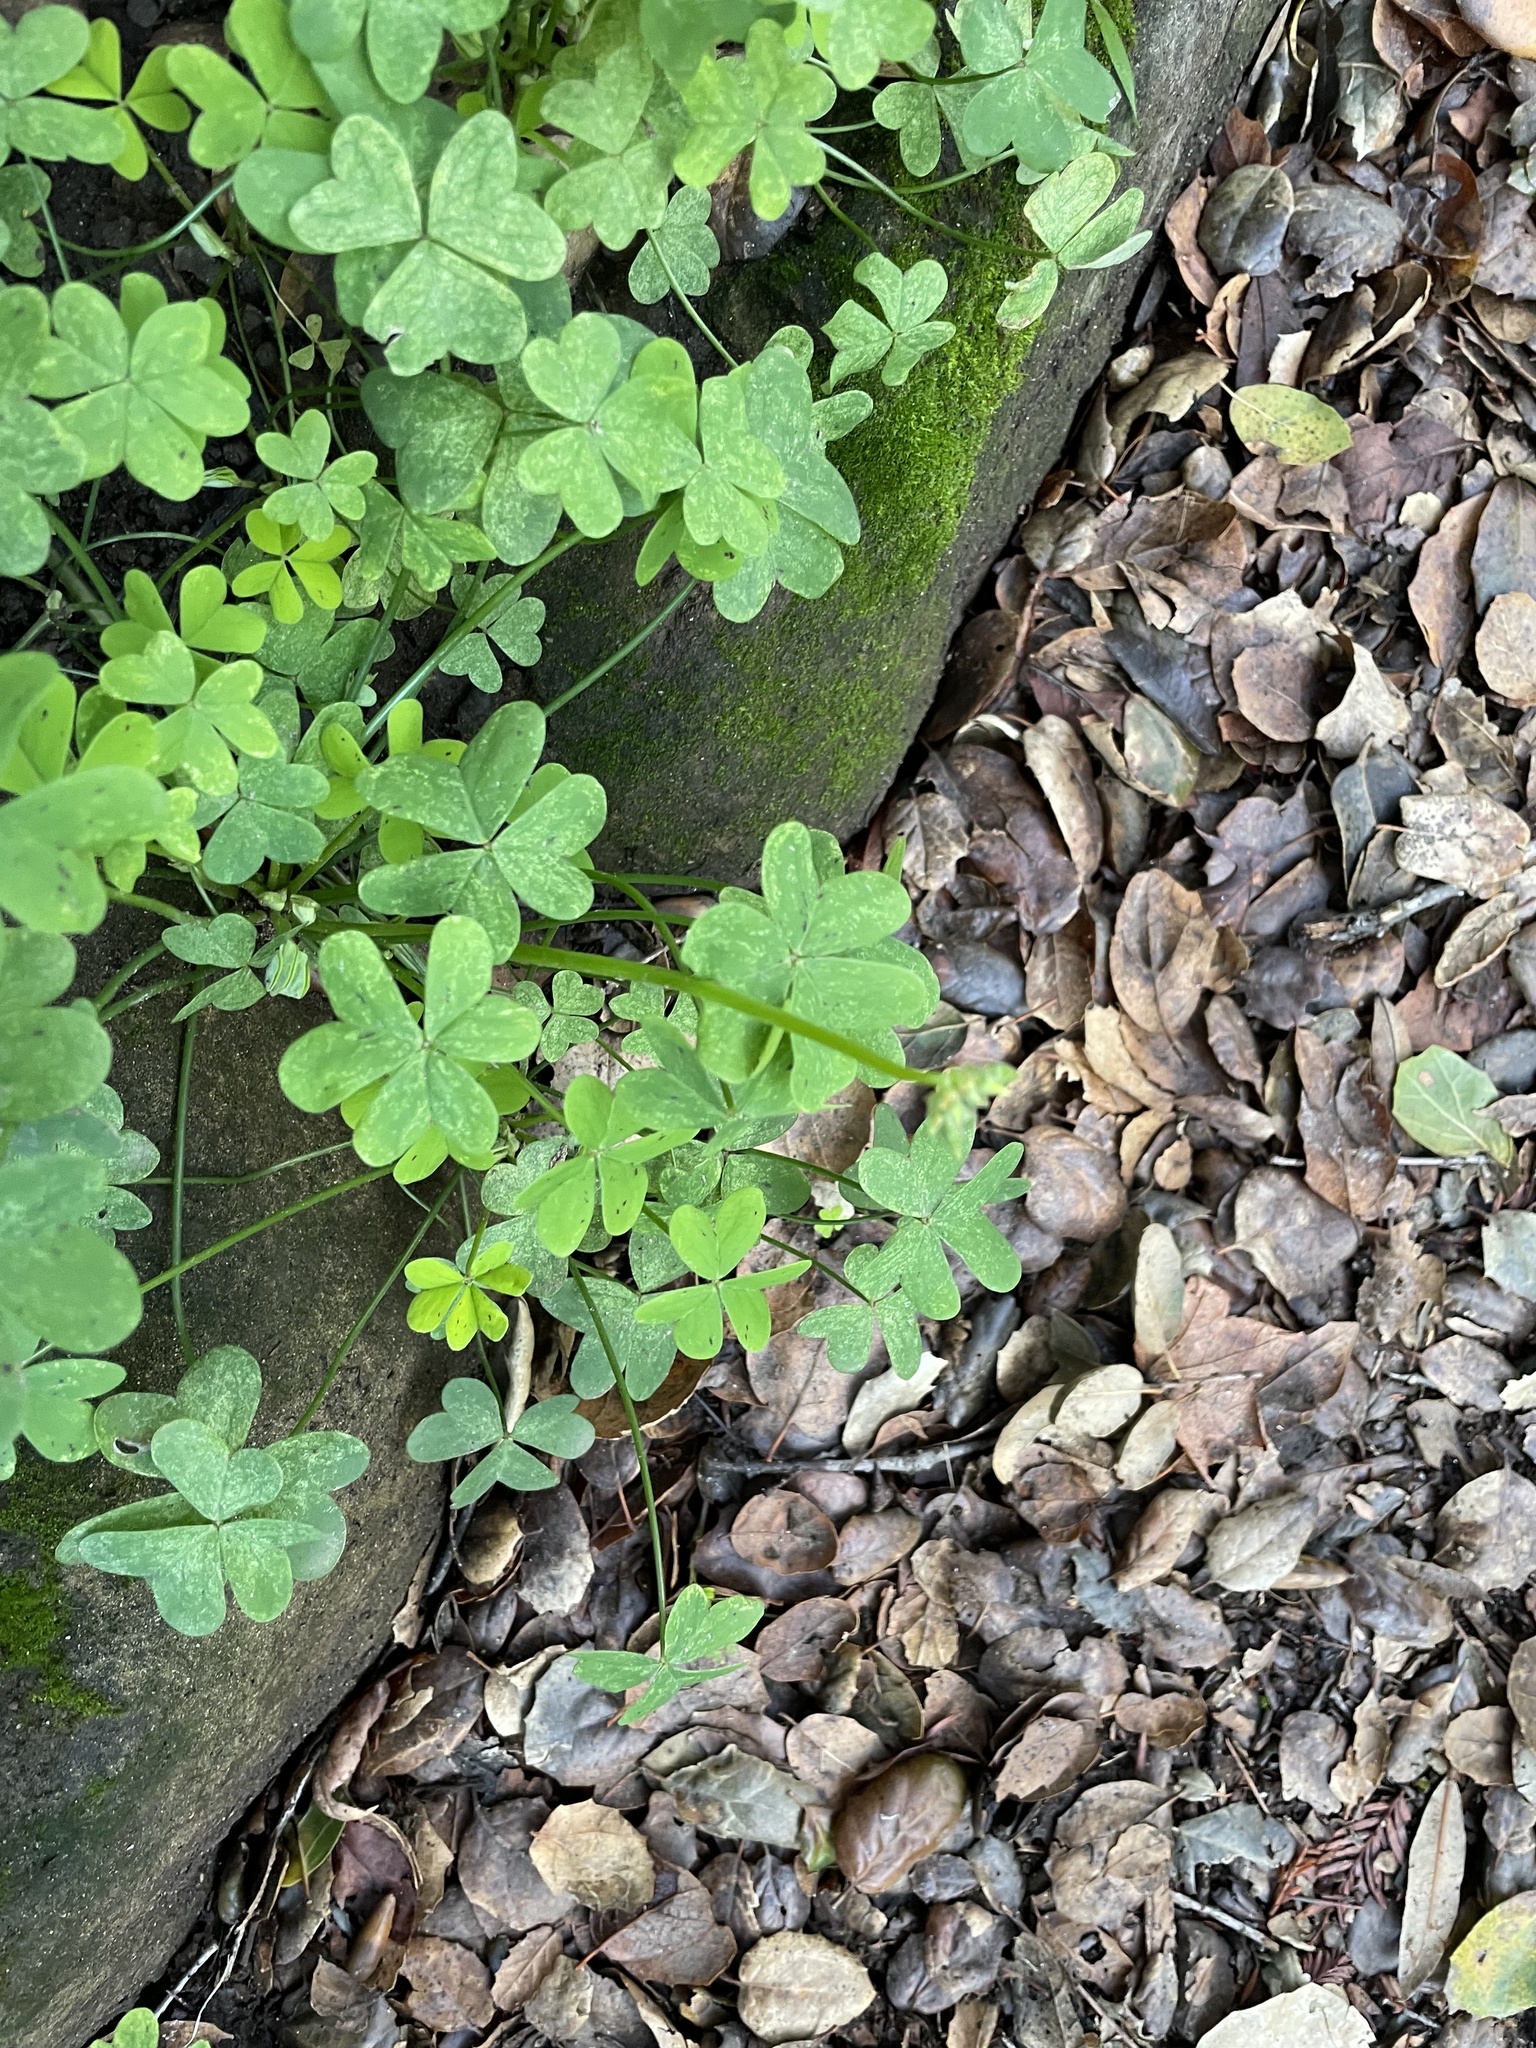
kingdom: Plantae
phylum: Tracheophyta
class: Magnoliopsida
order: Oxalidales
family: Oxalidaceae
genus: Oxalis
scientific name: Oxalis pes-caprae
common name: Bermuda-buttercup
